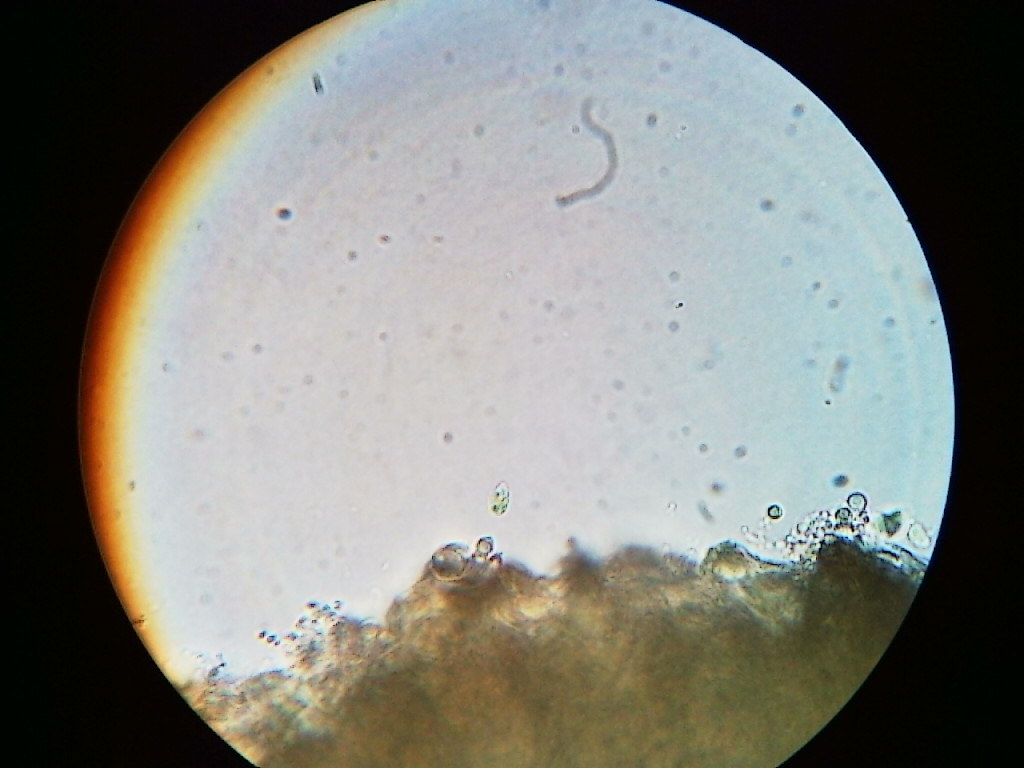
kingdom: Fungi
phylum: Ascomycota
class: Lecanoromycetes
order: Baeomycetales
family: Trapeliaceae
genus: Trapeliopsis
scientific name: Trapeliopsis viridescens
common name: Greenish mottled-disk lichen
